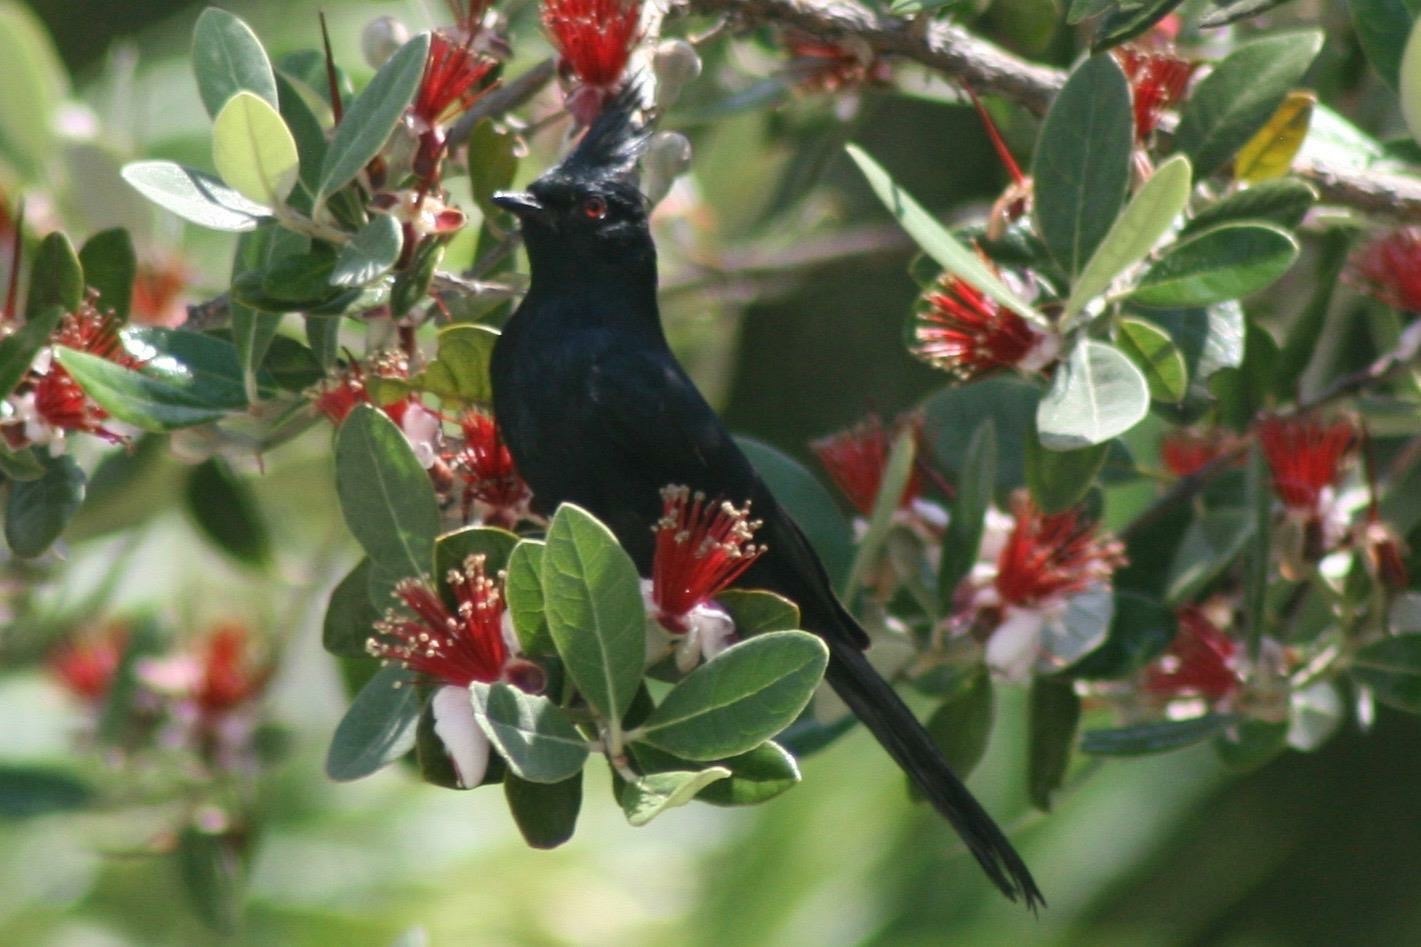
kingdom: Animalia
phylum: Chordata
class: Aves
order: Passeriformes
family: Ptilogonatidae
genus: Phainopepla
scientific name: Phainopepla nitens
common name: Phainopepla
